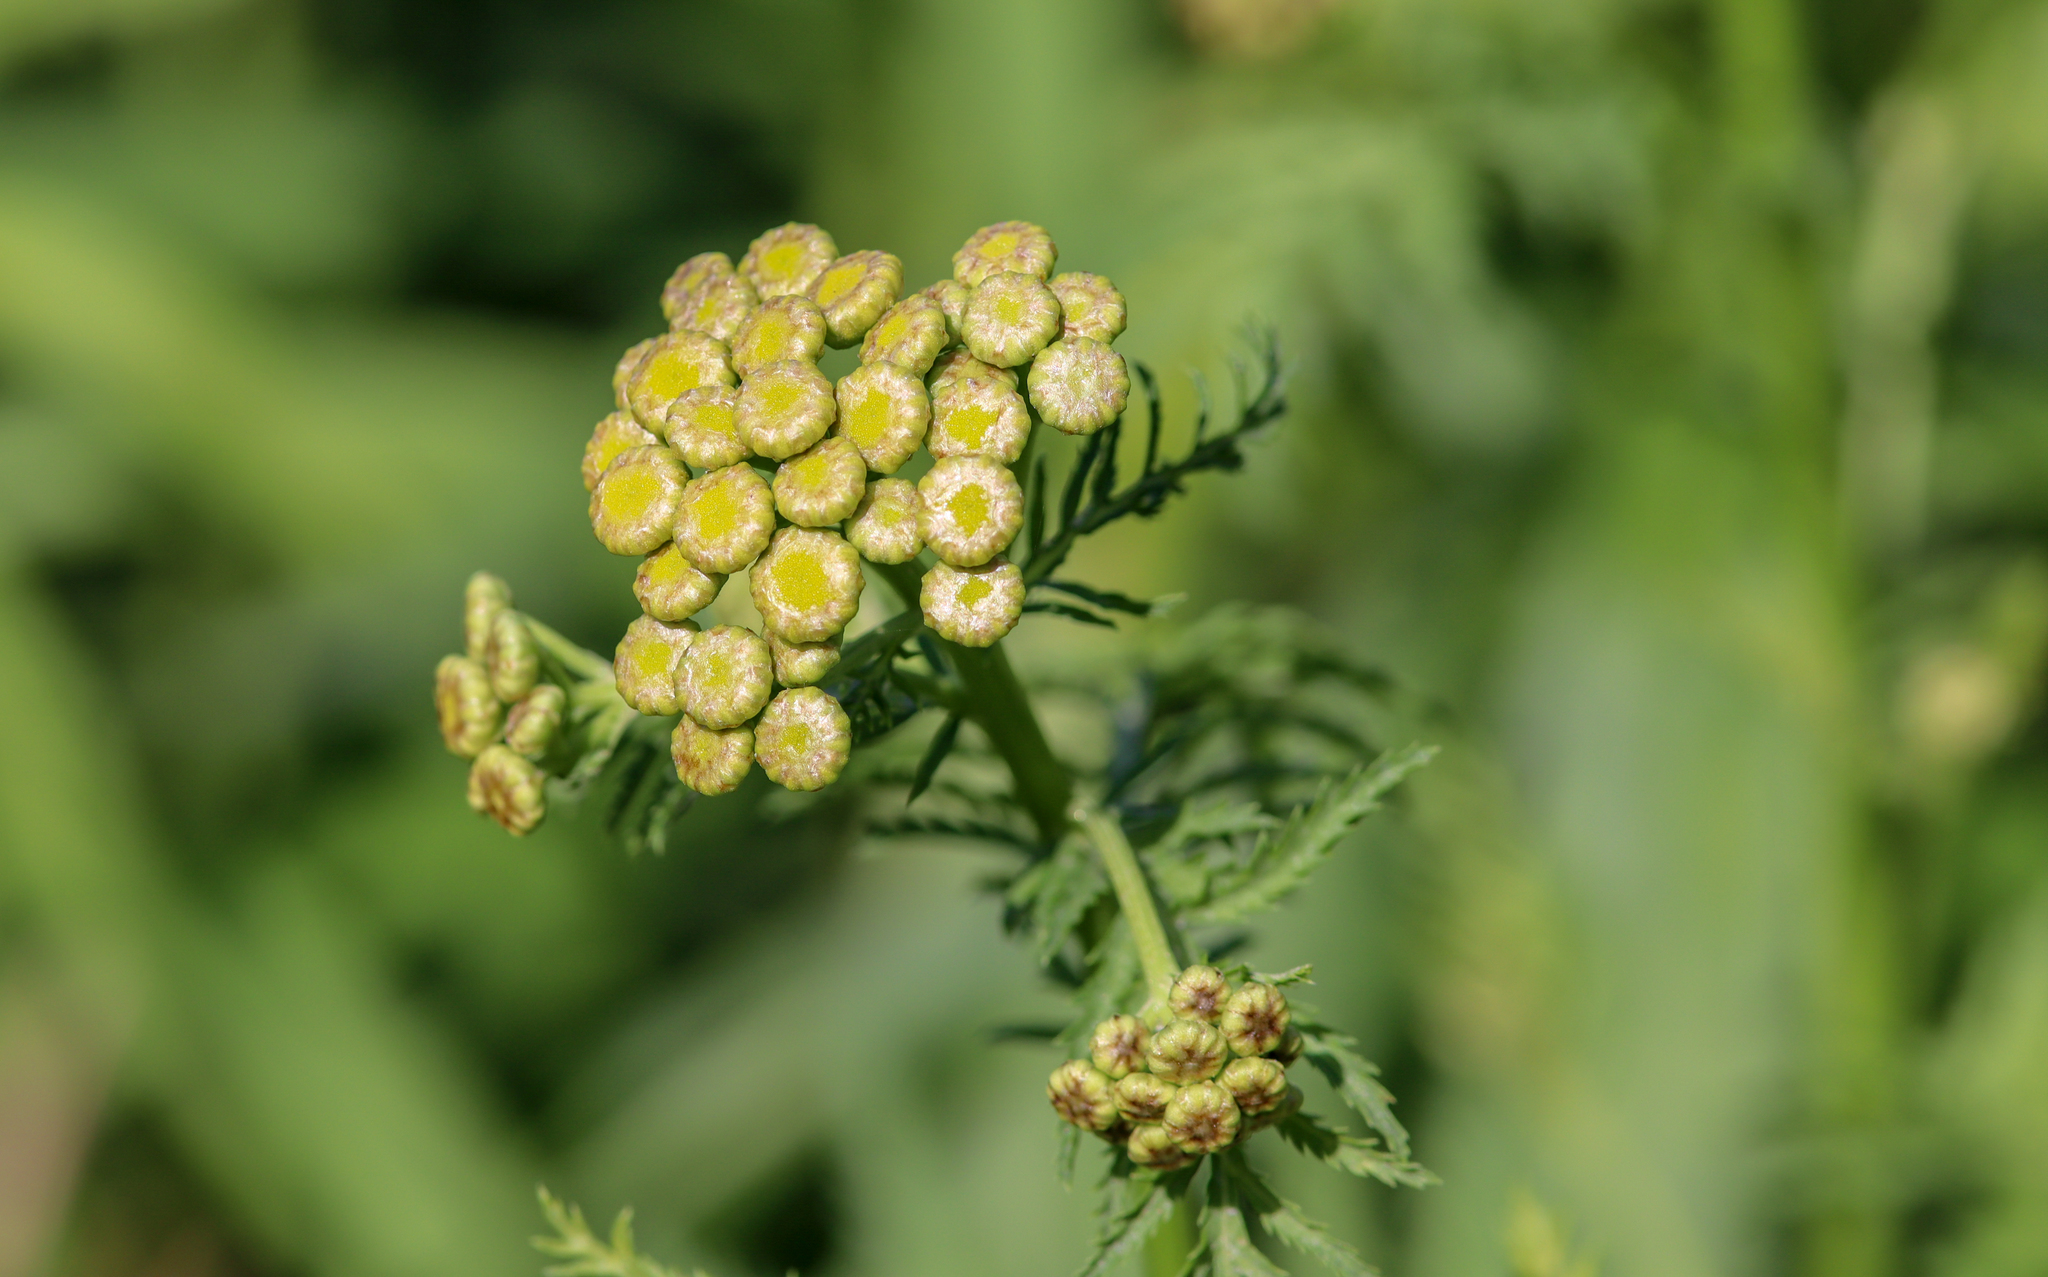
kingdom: Plantae
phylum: Tracheophyta
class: Magnoliopsida
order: Asterales
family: Asteraceae
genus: Tanacetum
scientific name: Tanacetum vulgare
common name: Common tansy
